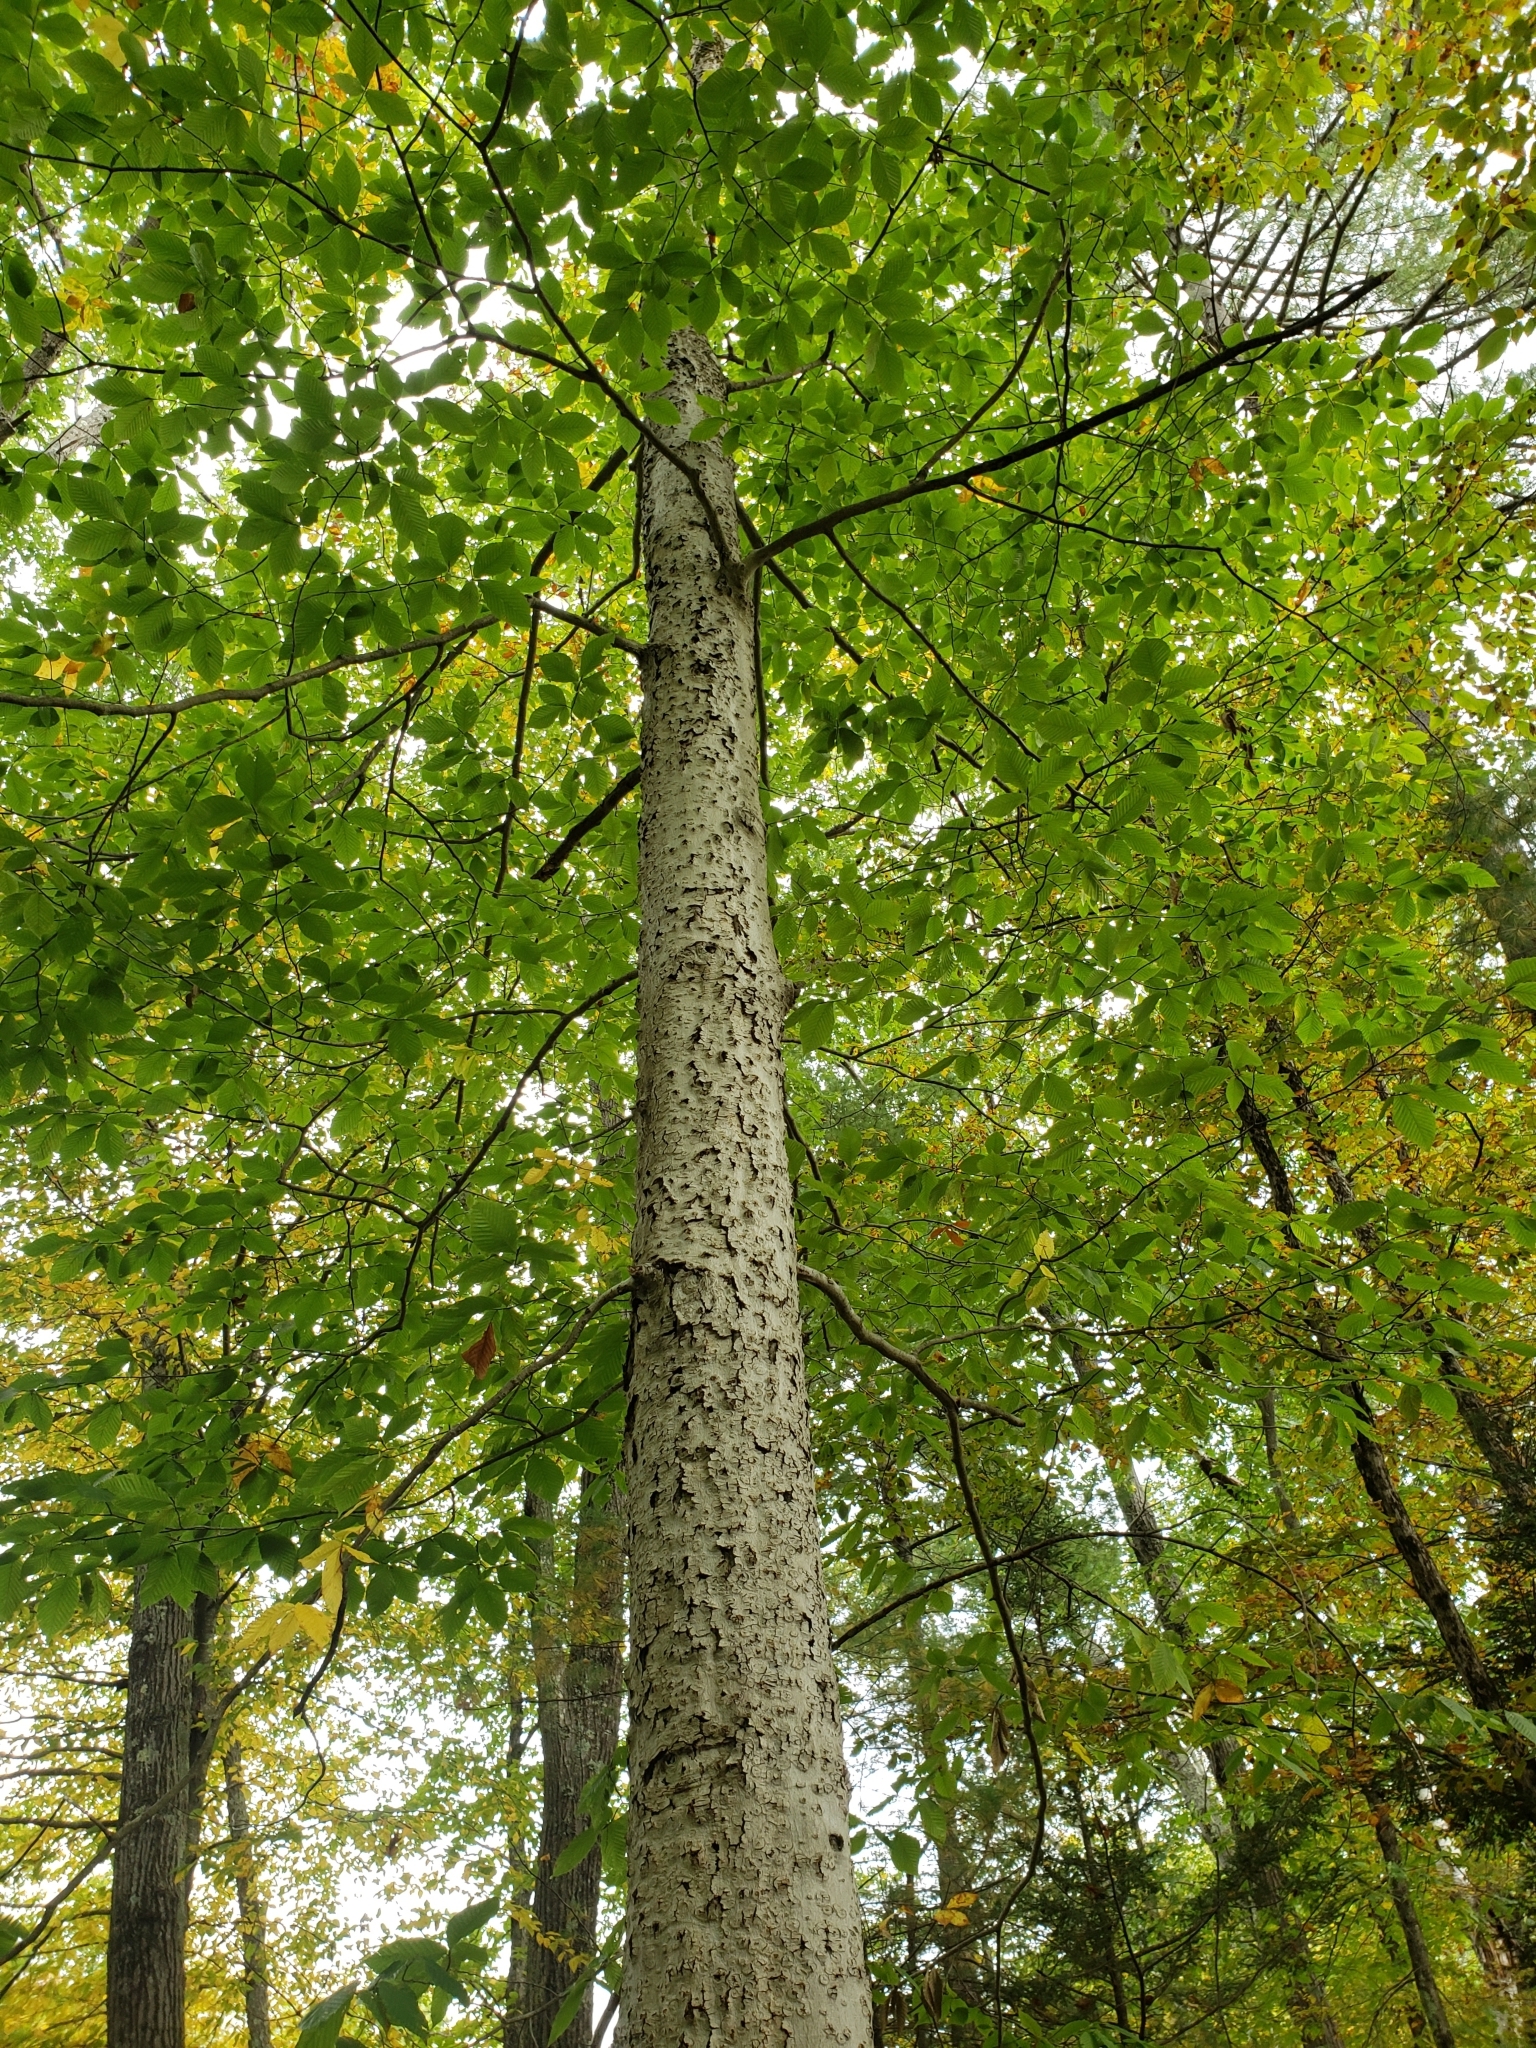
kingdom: Plantae
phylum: Tracheophyta
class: Magnoliopsida
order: Fagales
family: Fagaceae
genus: Fagus
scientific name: Fagus grandifolia
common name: American beech
